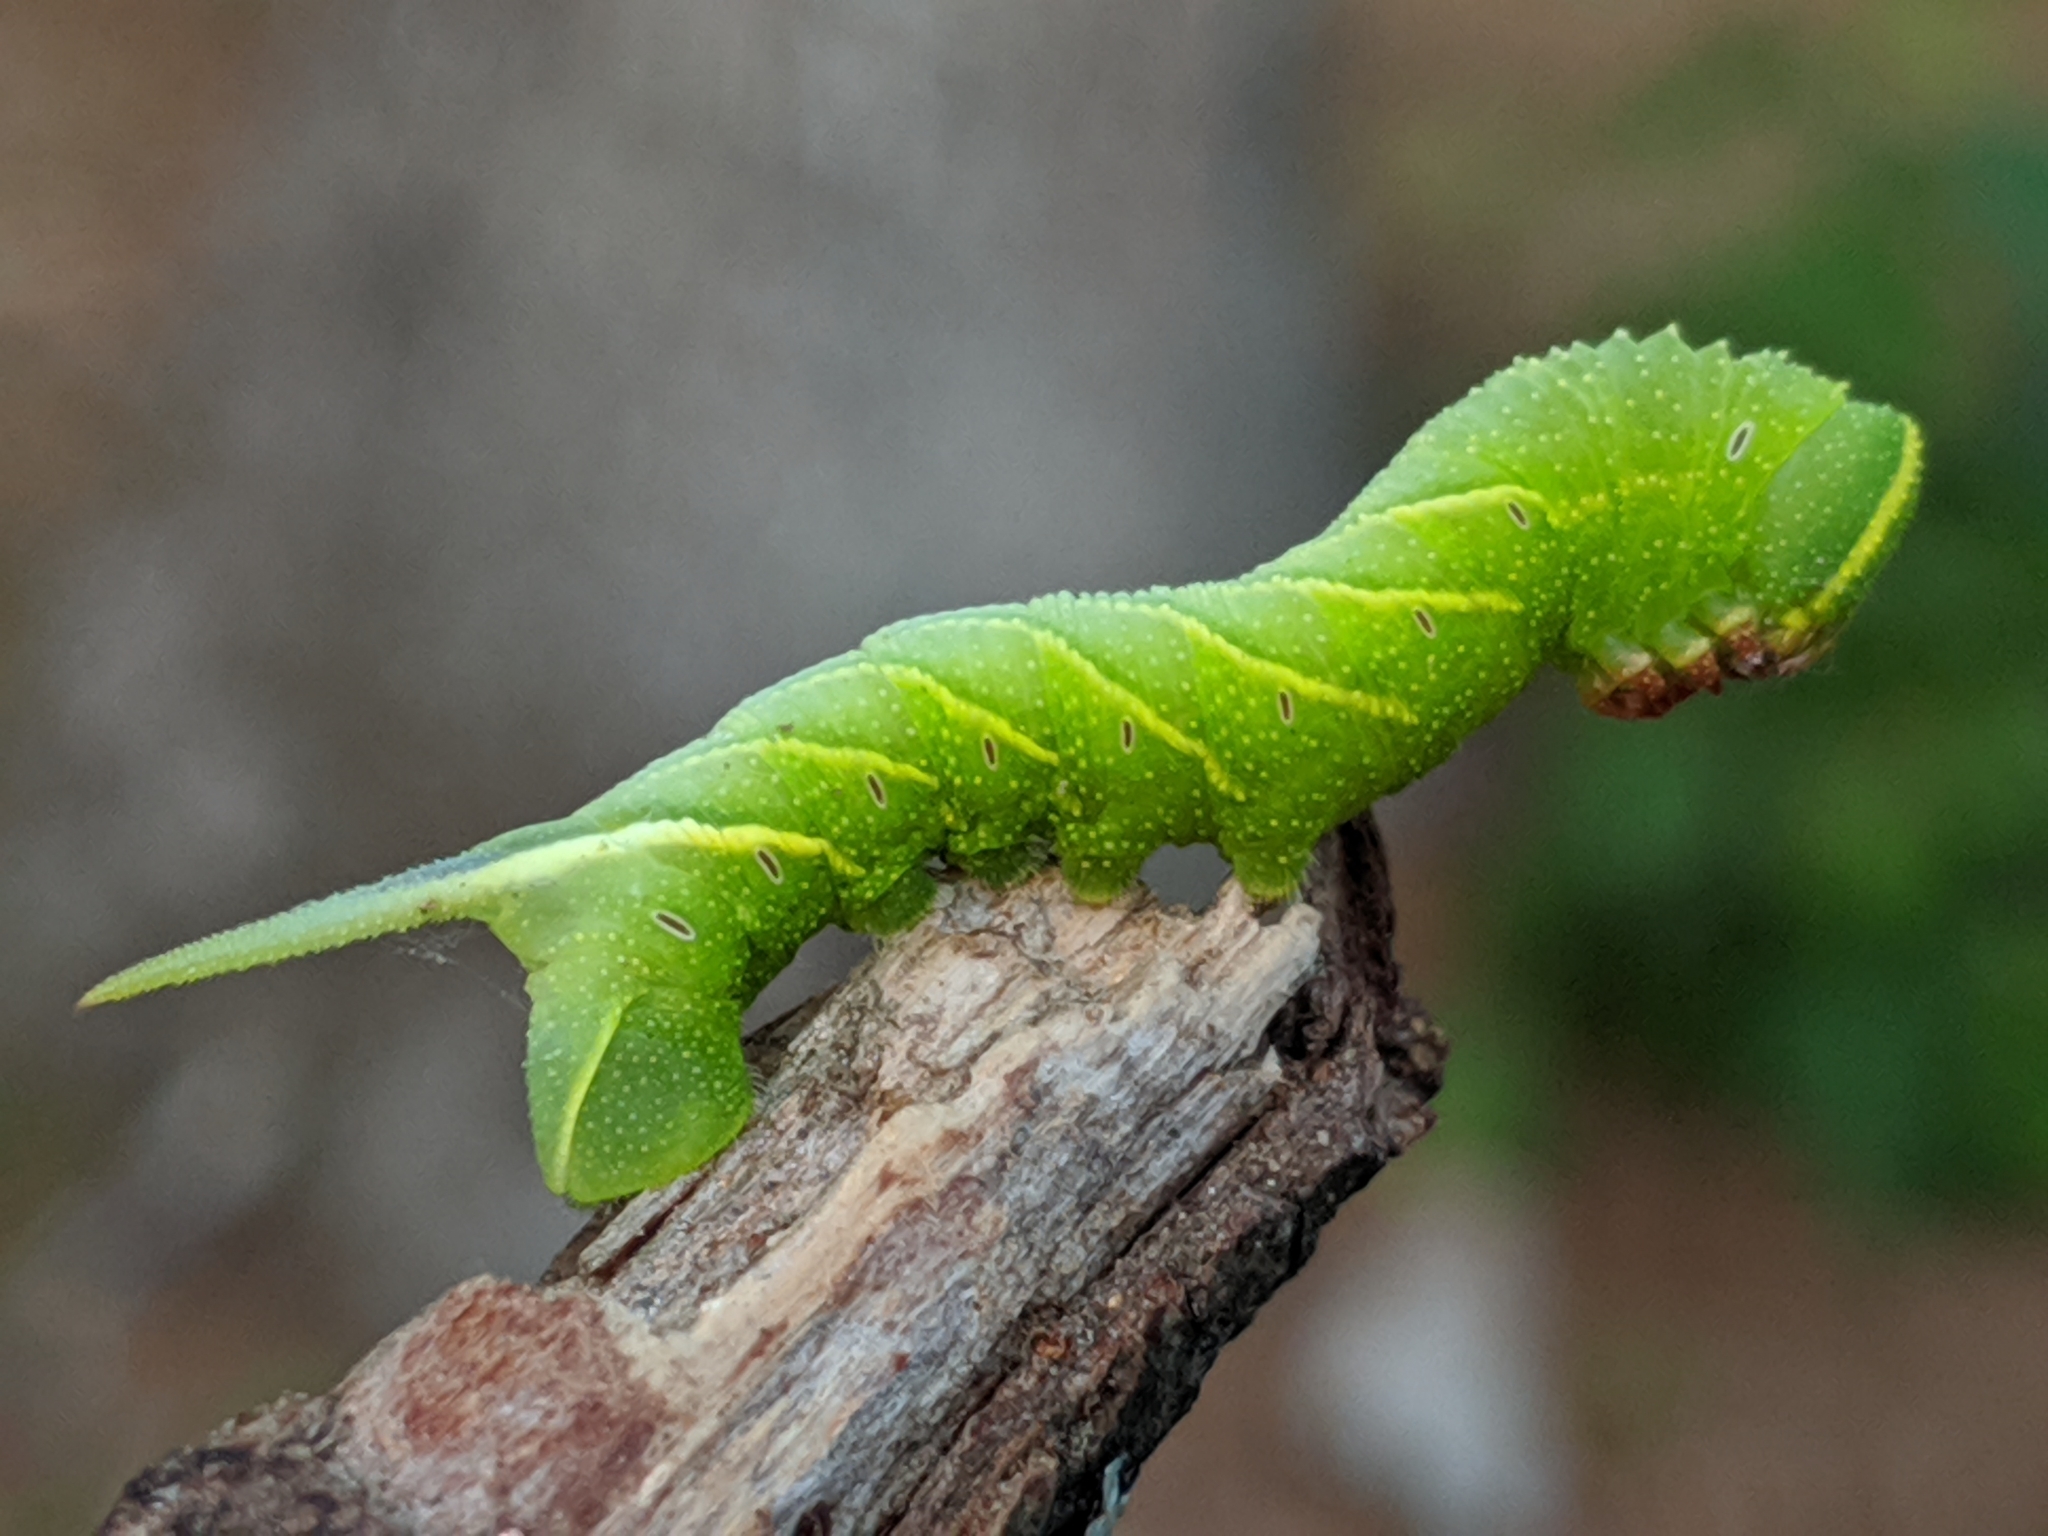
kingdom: Animalia
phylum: Arthropoda
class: Insecta
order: Lepidoptera
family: Sphingidae
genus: Sphinx
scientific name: Sphinx chersis
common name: Great ash sphinx
